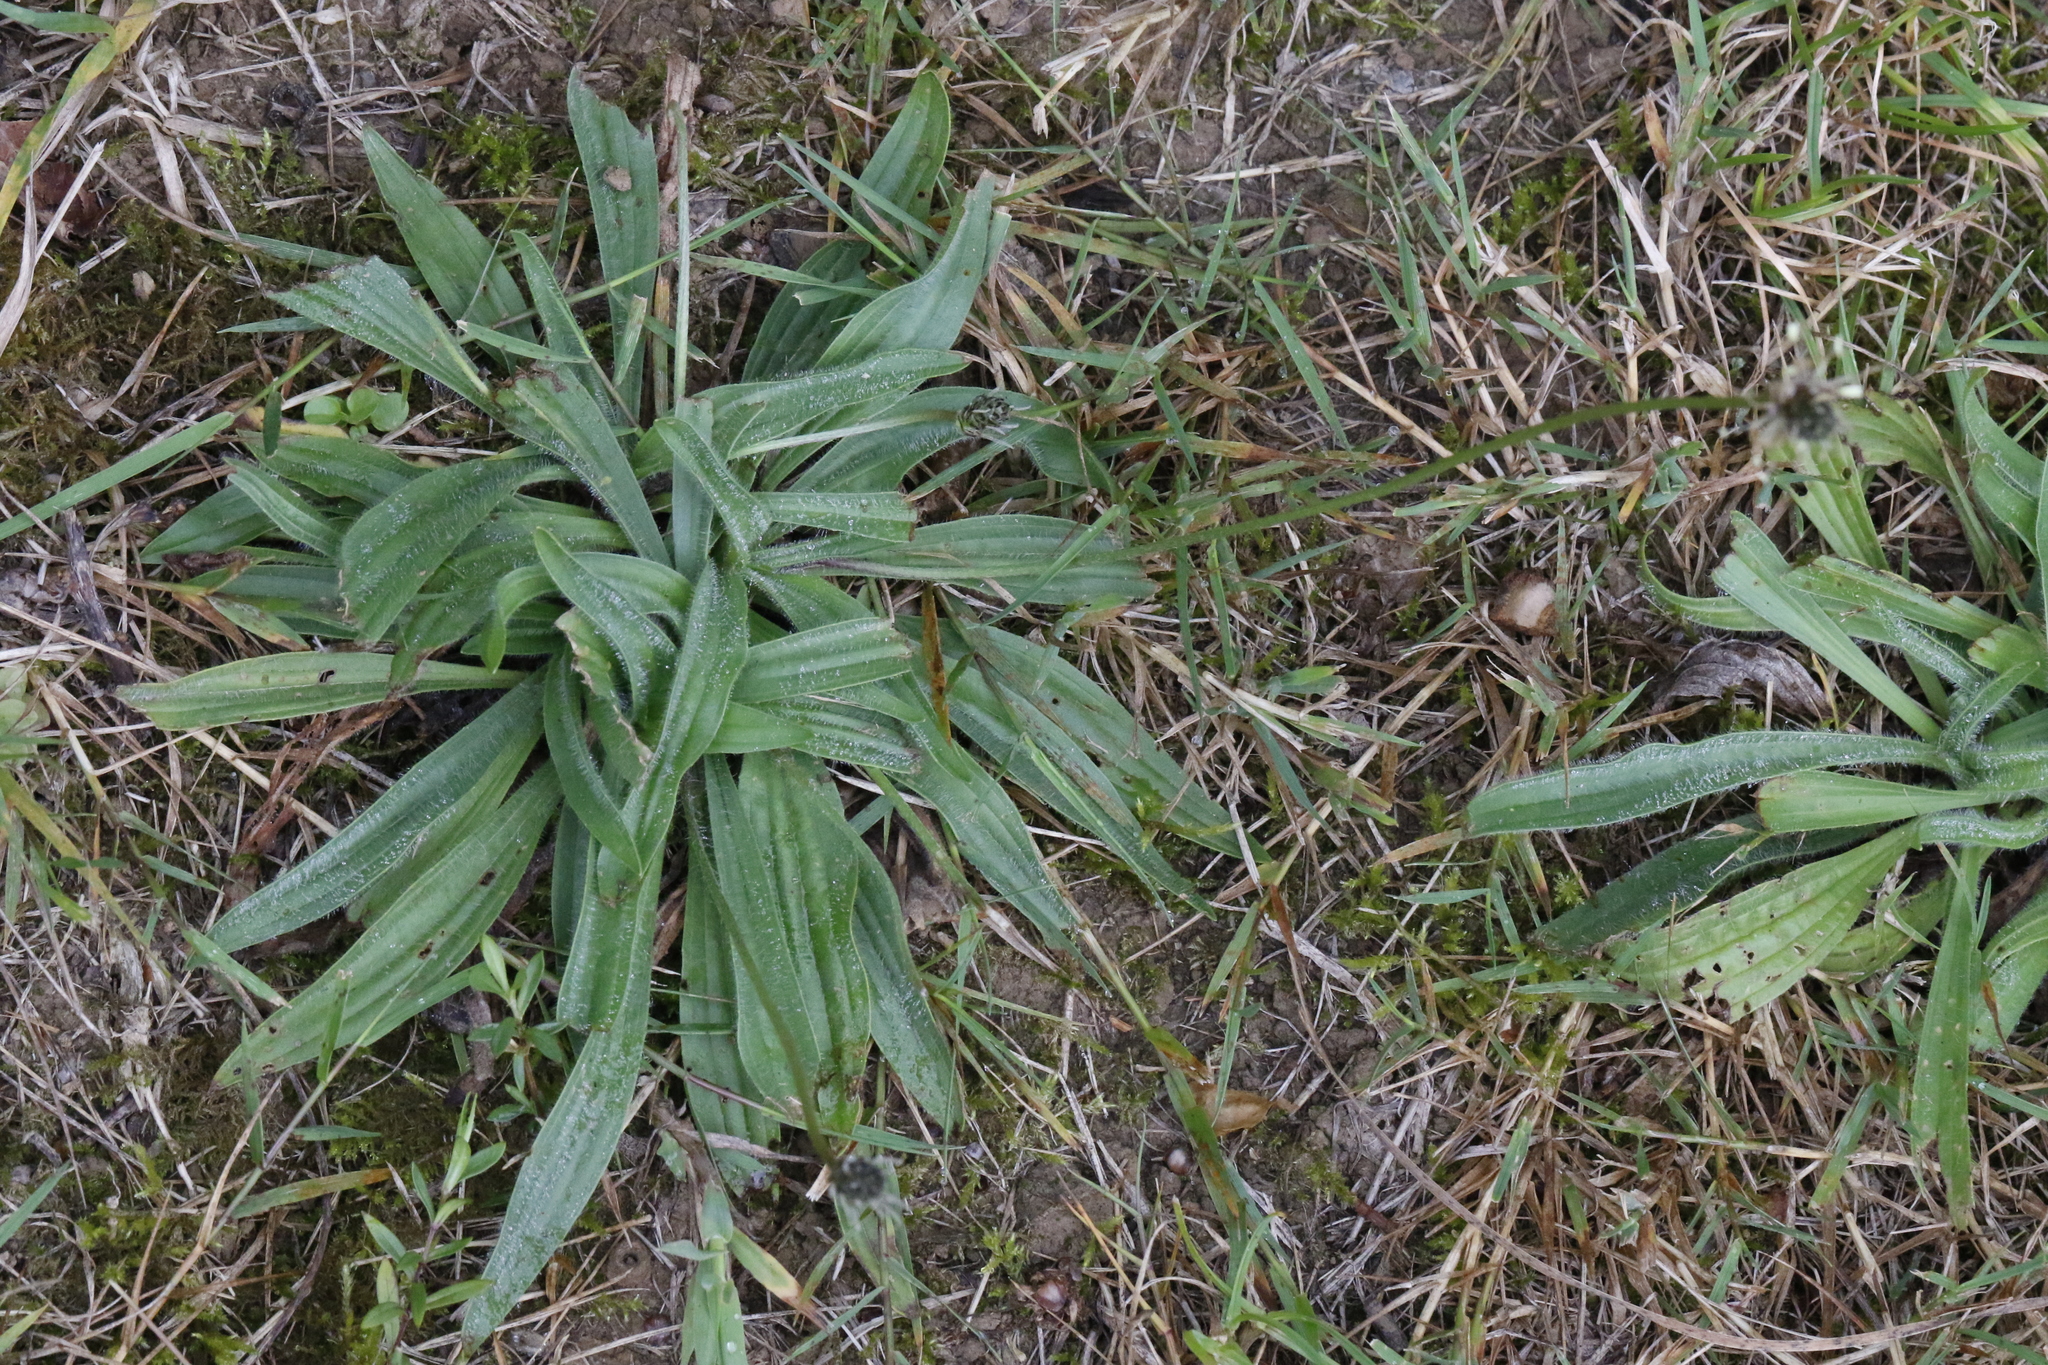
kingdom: Plantae
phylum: Tracheophyta
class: Magnoliopsida
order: Lamiales
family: Plantaginaceae
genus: Plantago
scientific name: Plantago lanceolata
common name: Ribwort plantain
